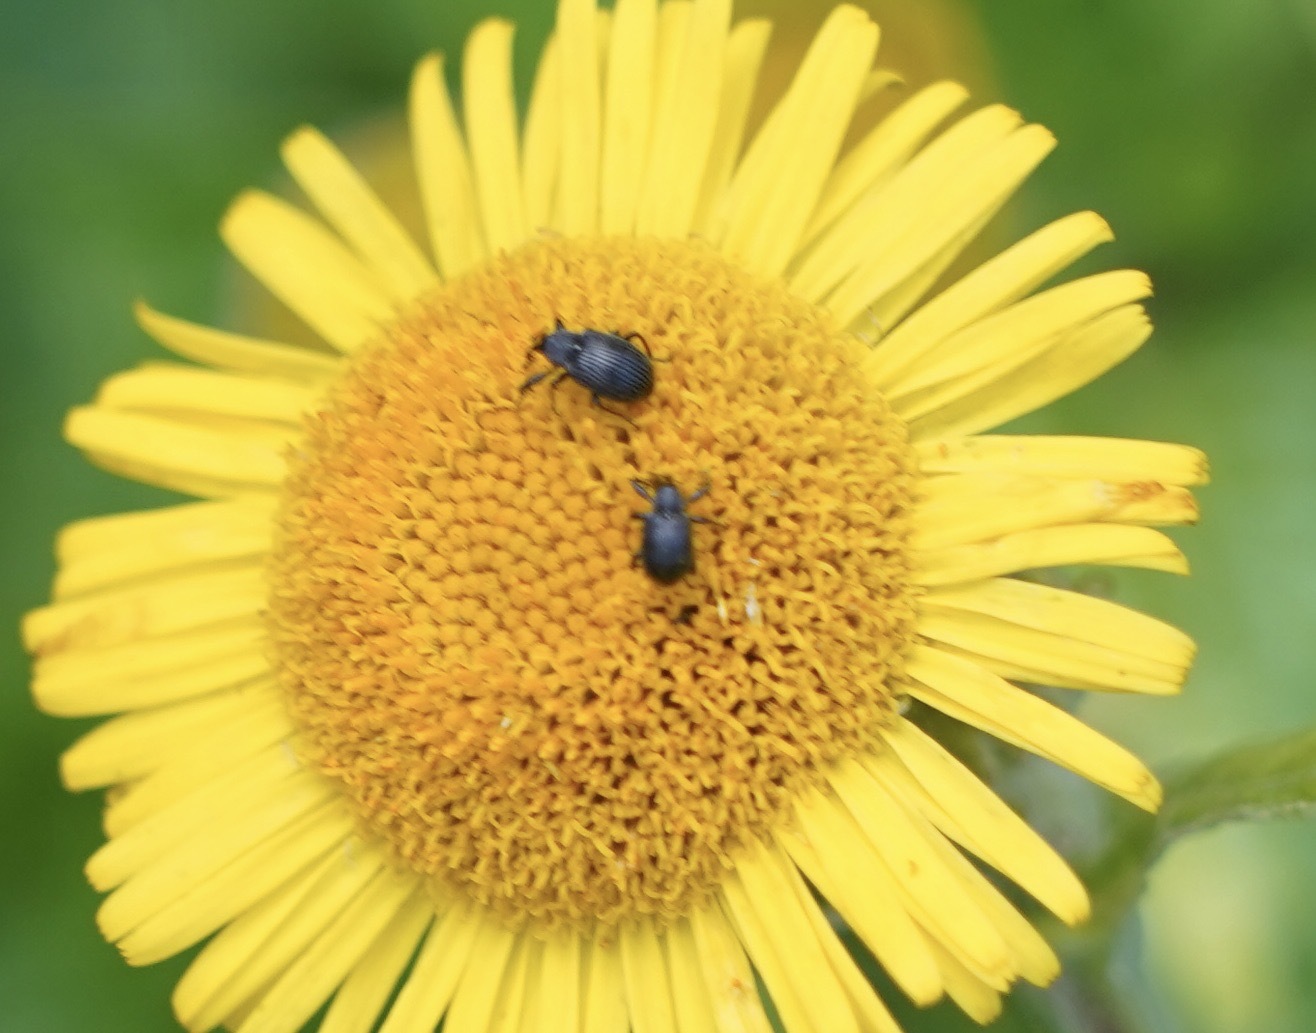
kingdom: Animalia
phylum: Arthropoda
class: Insecta
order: Coleoptera
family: Curculionidae
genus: Anthonomus
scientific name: Anthonomus rubi
